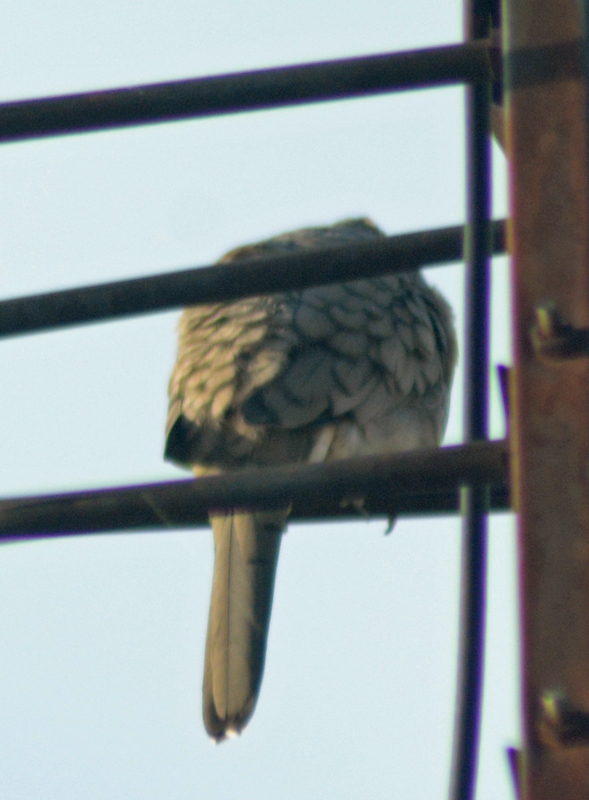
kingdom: Animalia
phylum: Chordata
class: Aves
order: Columbiformes
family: Columbidae
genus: Columbina
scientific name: Columbina inca
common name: Inca dove
